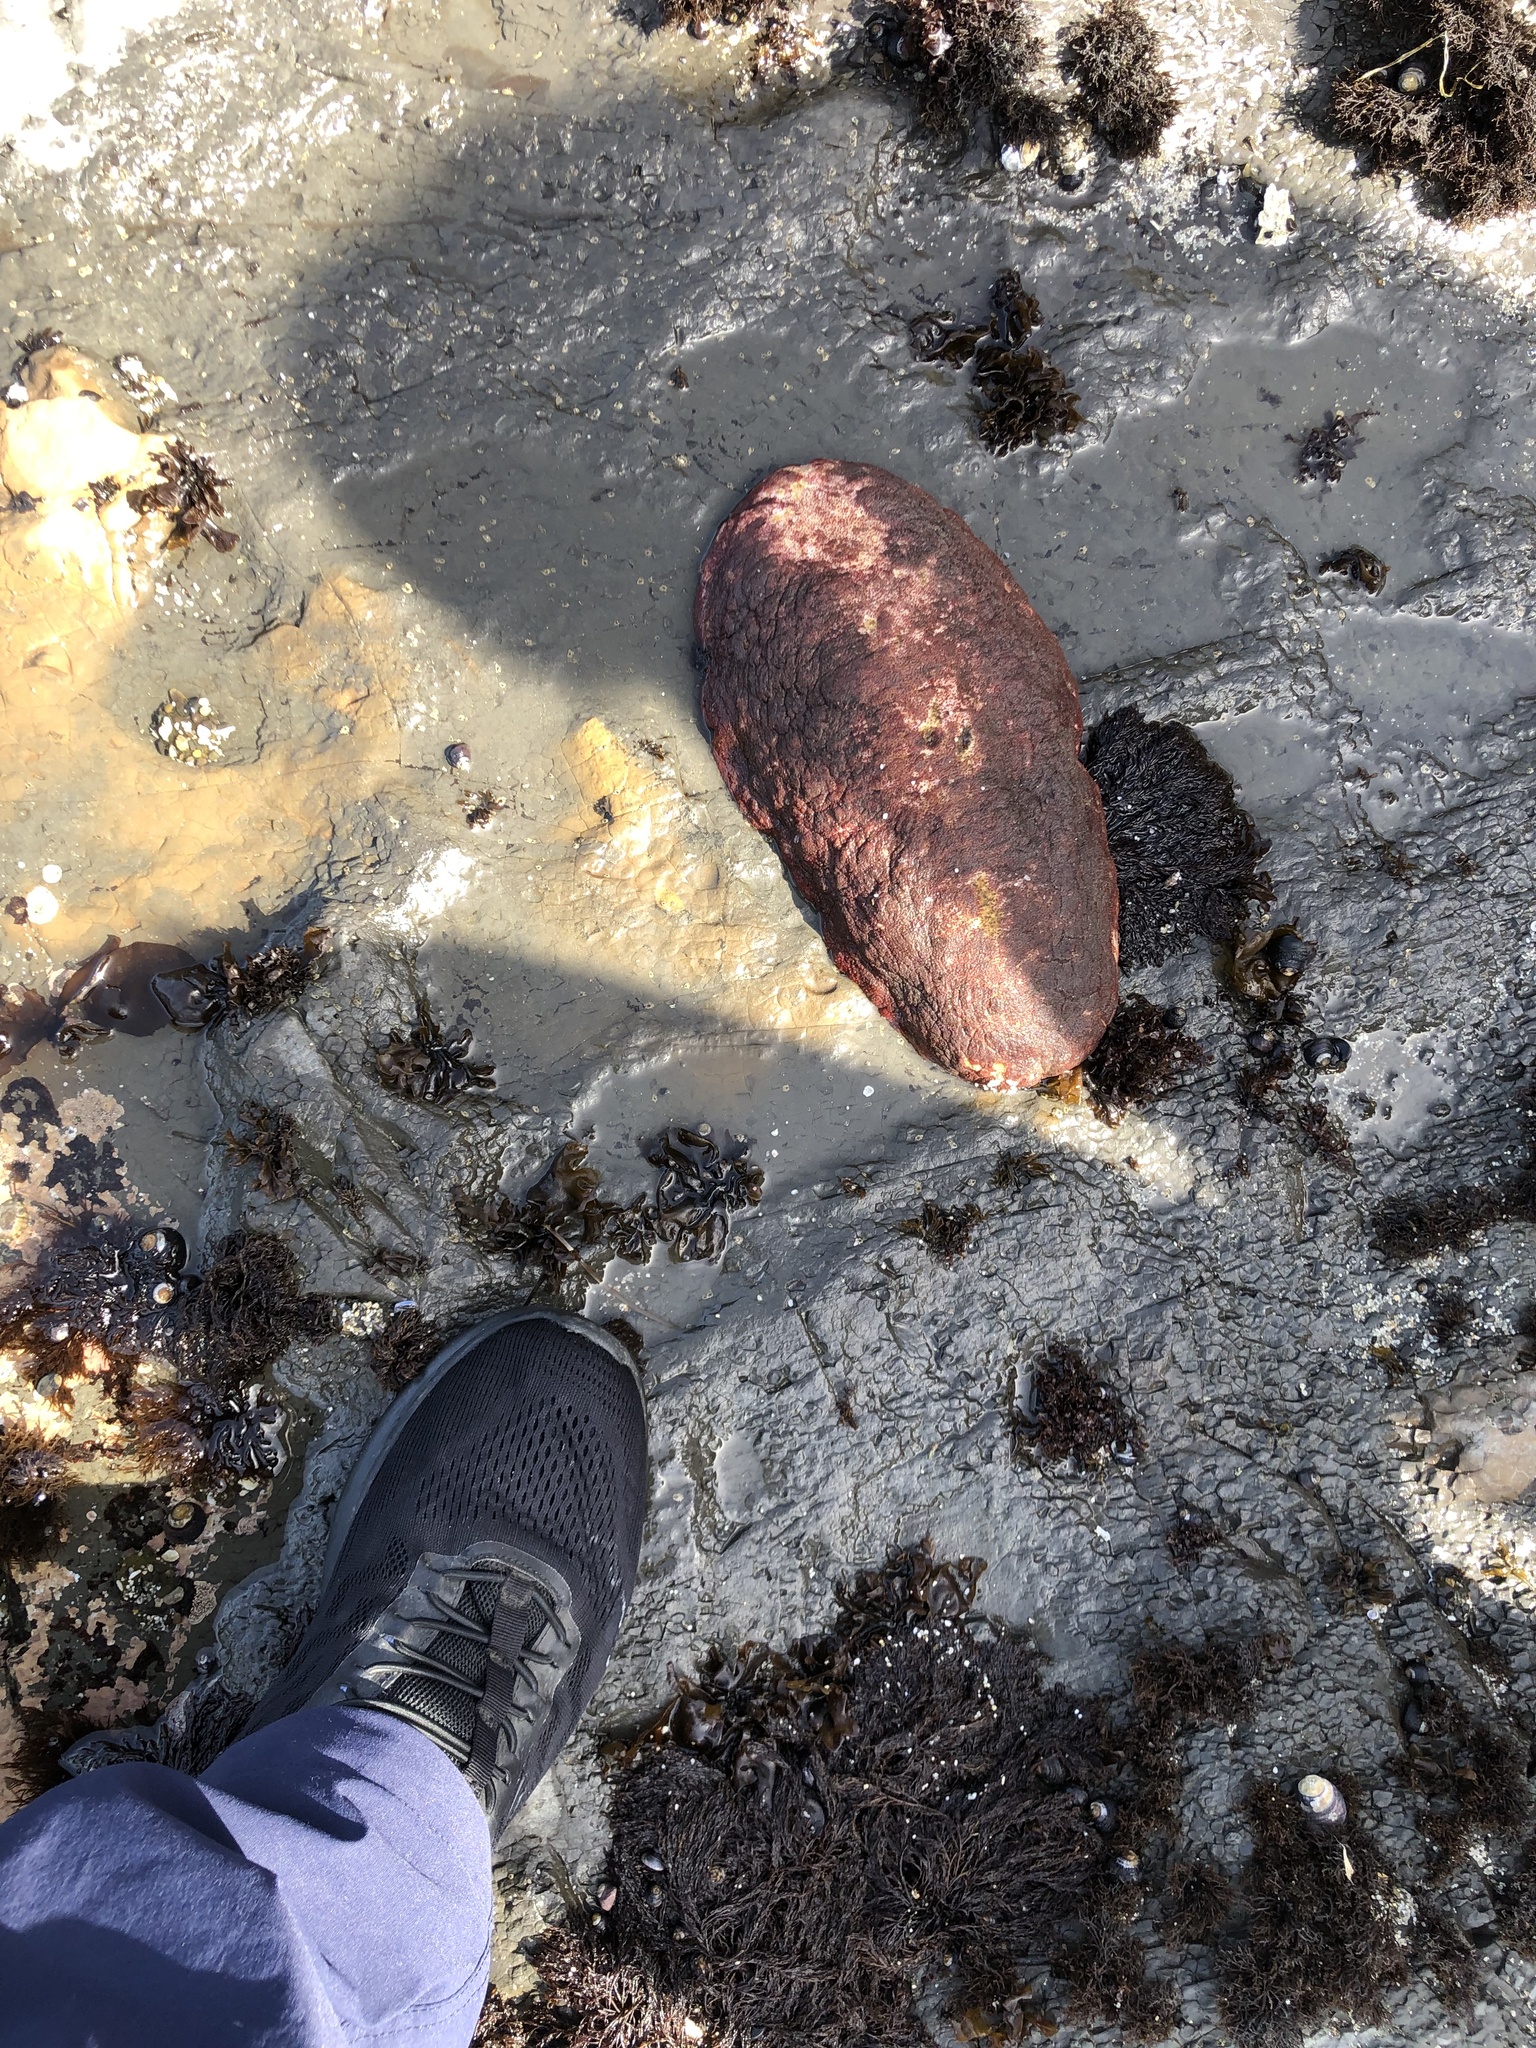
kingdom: Animalia
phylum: Mollusca
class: Polyplacophora
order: Chitonida
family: Acanthochitonidae
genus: Cryptochiton
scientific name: Cryptochiton stelleri
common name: Giant pacific chiton
